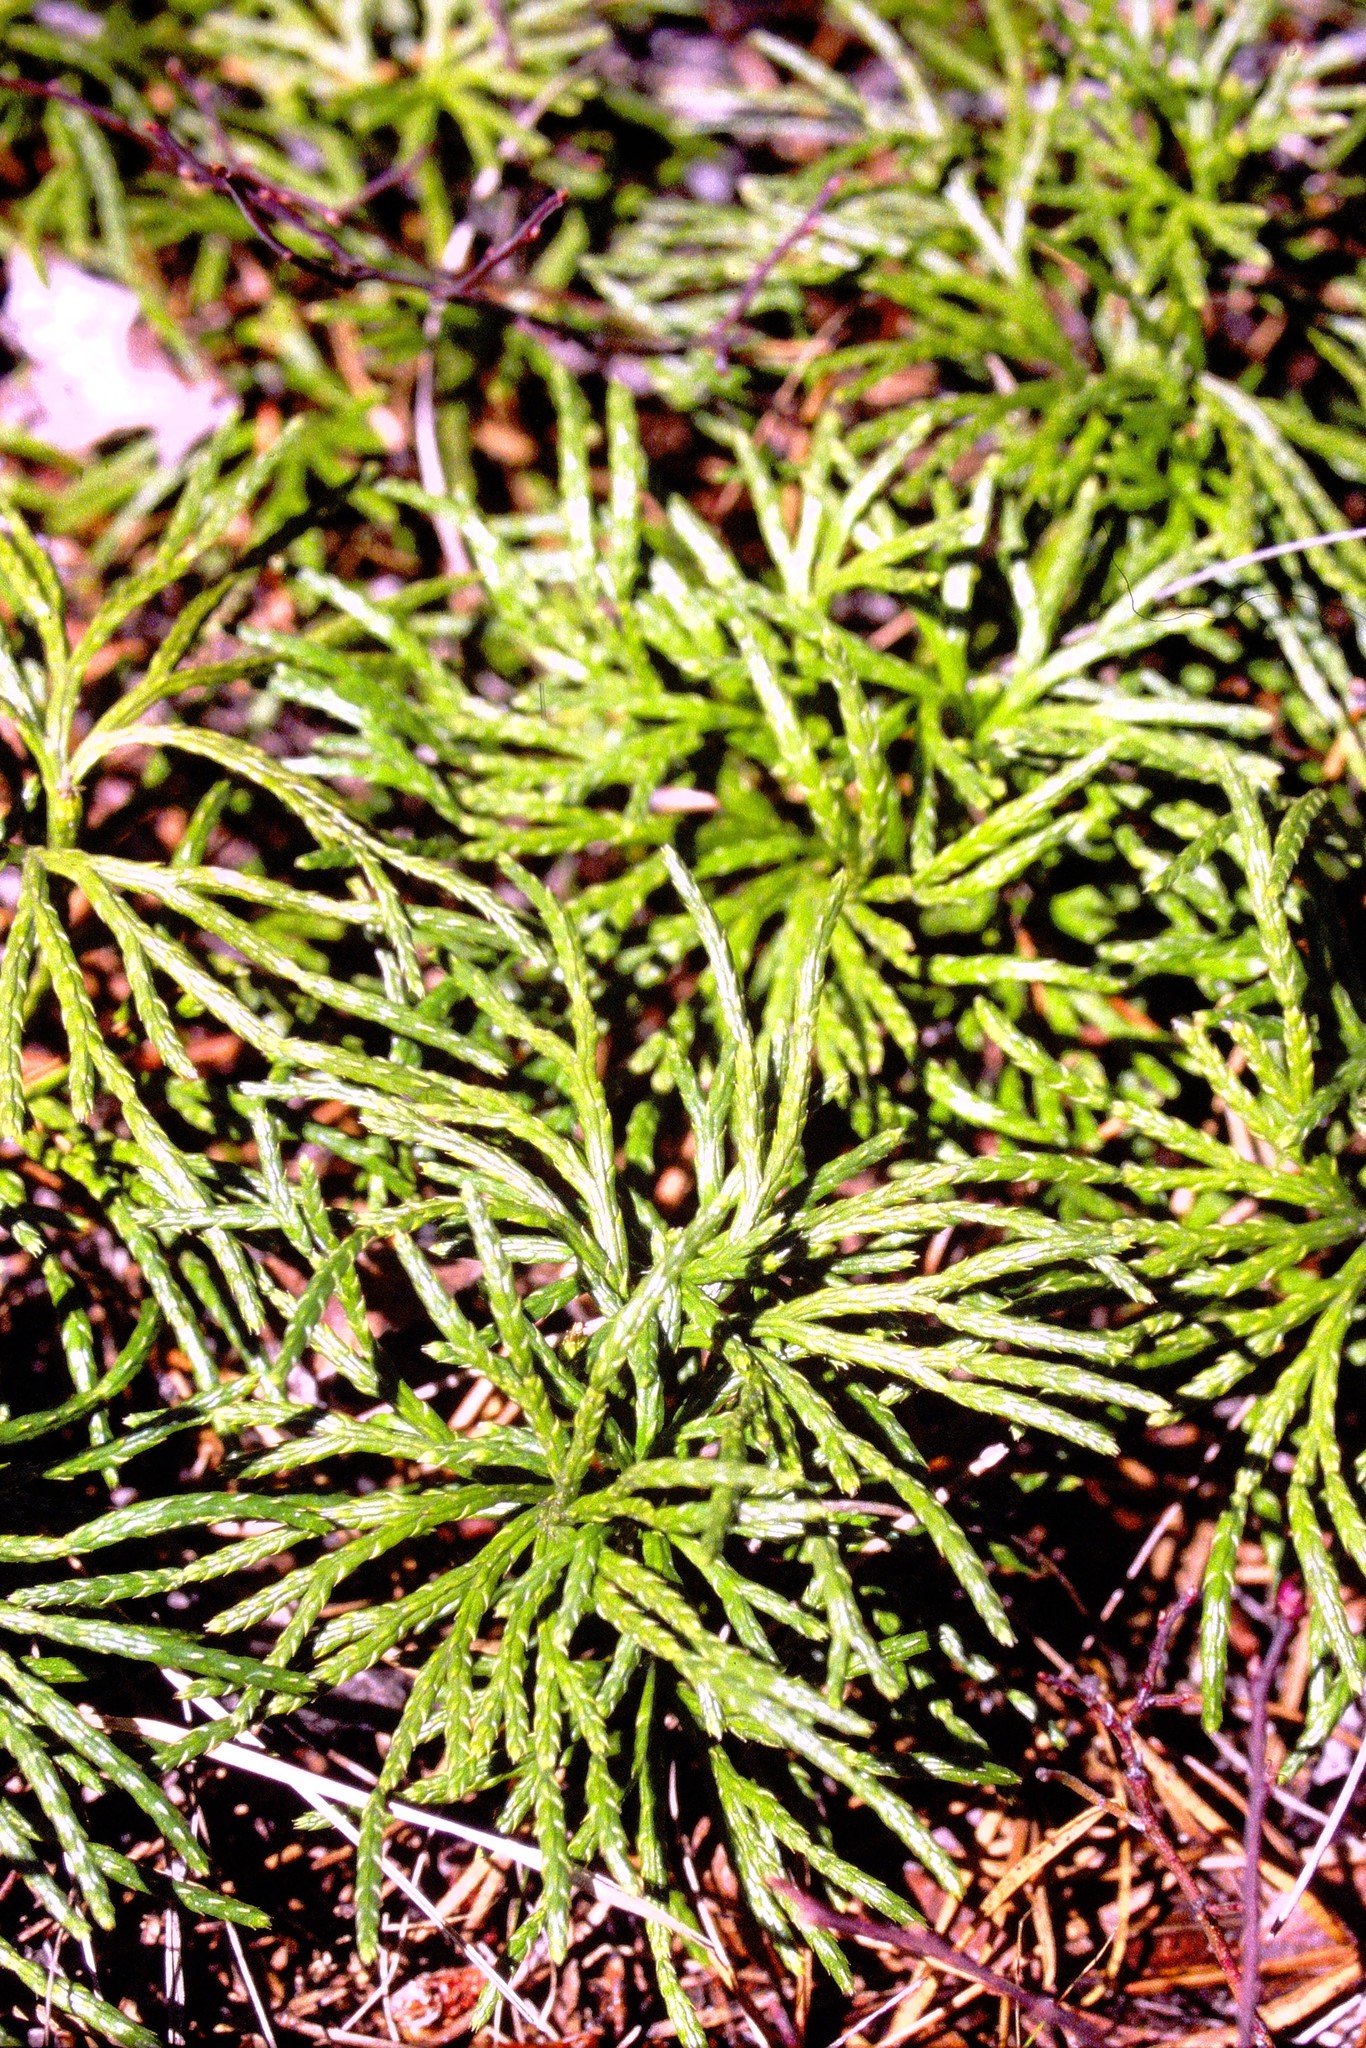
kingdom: Plantae
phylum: Tracheophyta
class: Lycopodiopsida
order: Lycopodiales
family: Lycopodiaceae
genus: Diphasiastrum
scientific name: Diphasiastrum complanatum
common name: Northern running-pine
